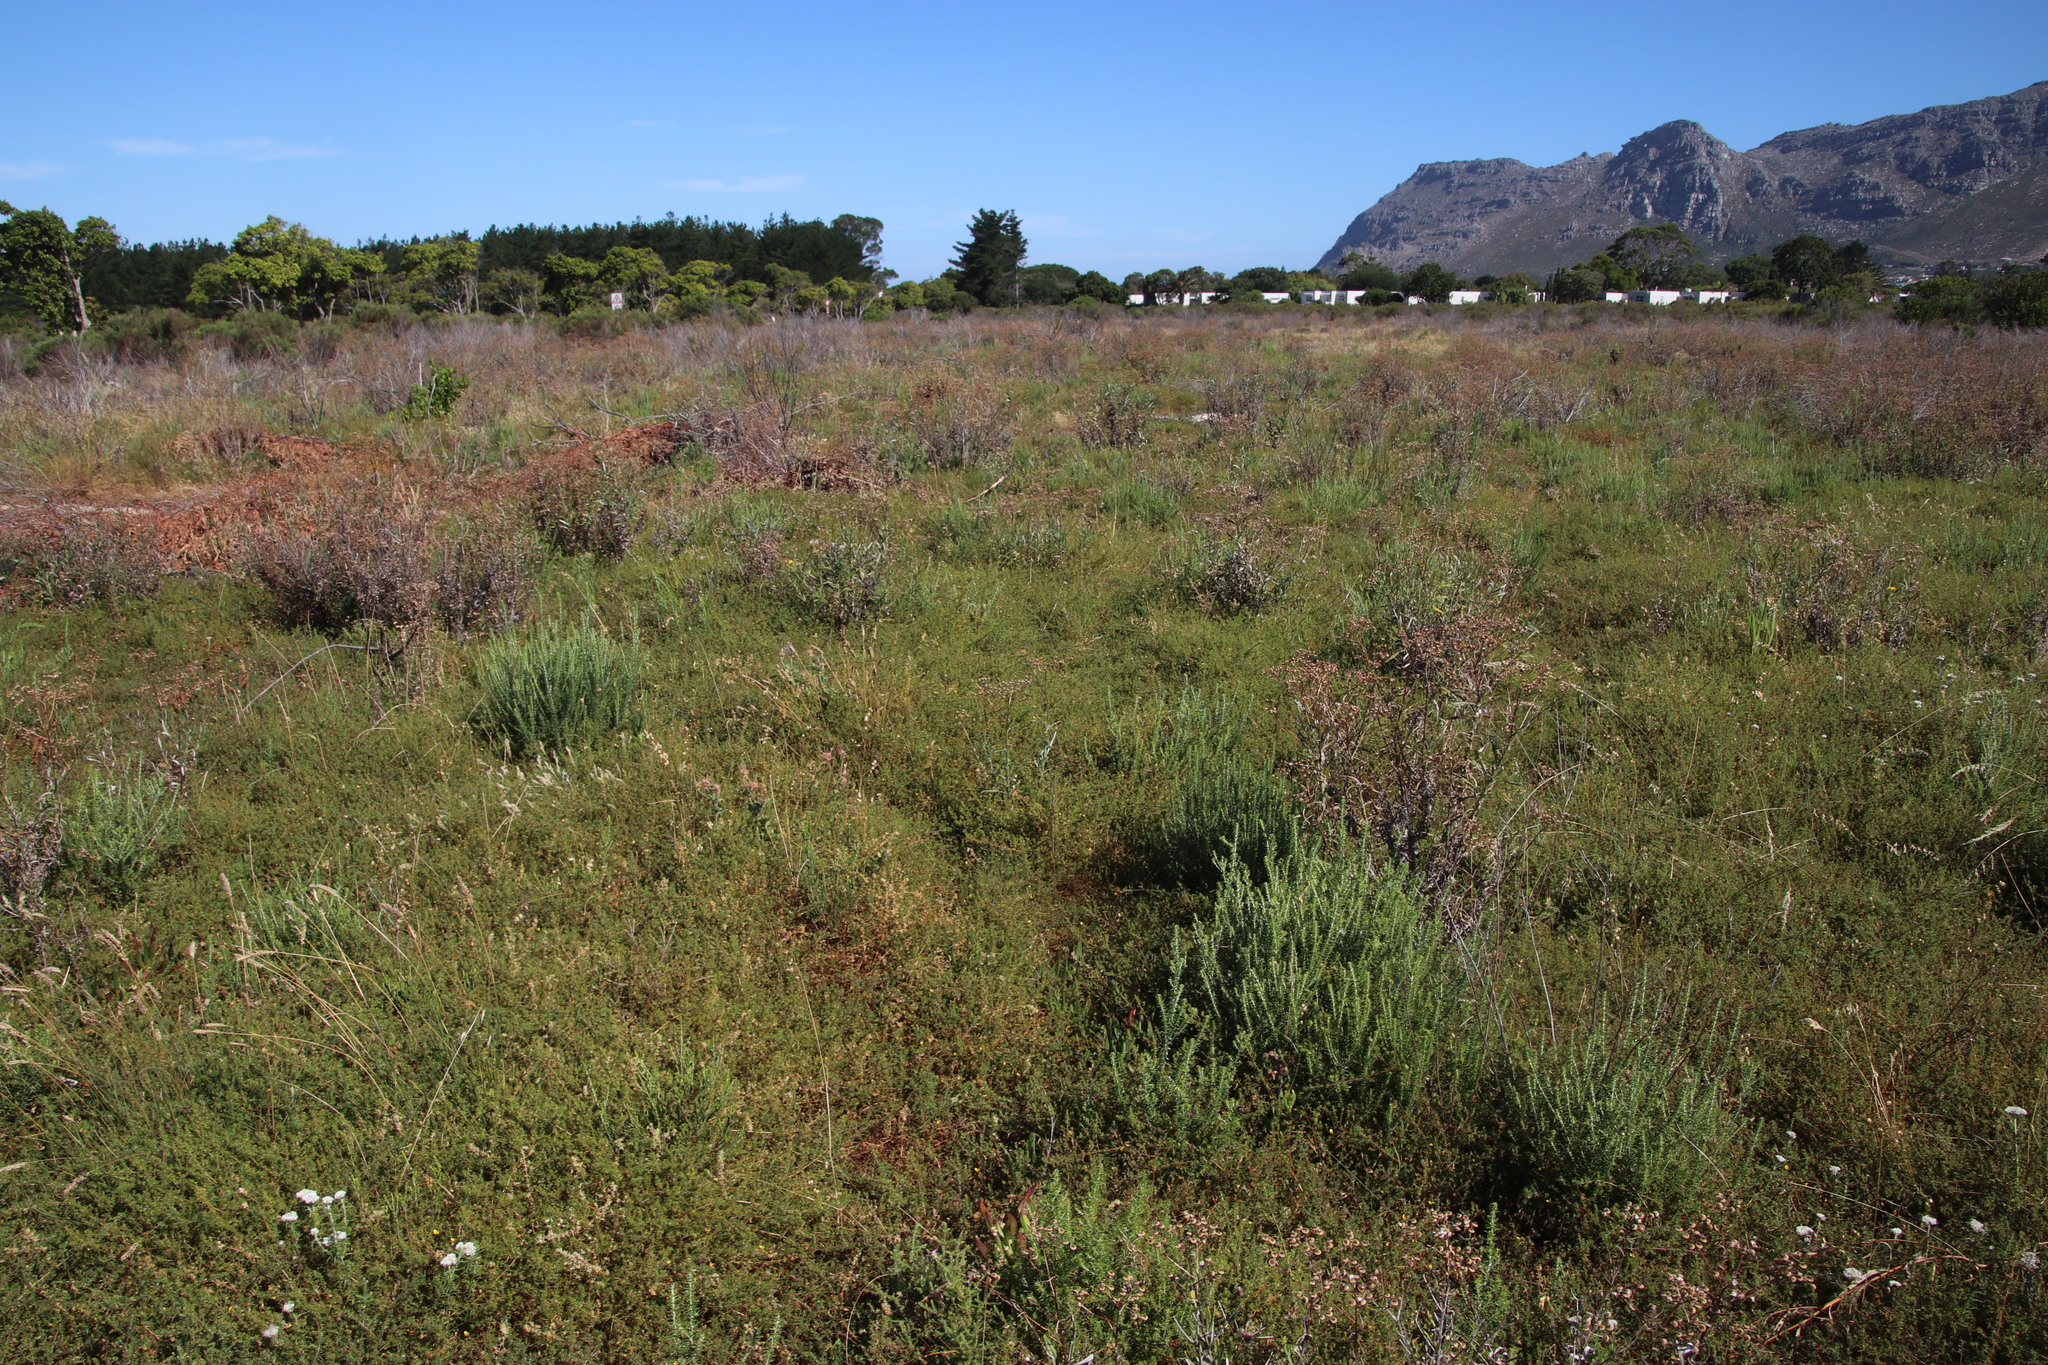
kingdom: Plantae
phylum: Tracheophyta
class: Magnoliopsida
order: Fabales
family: Fabaceae
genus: Aspalathus
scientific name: Aspalathus retroflexa
